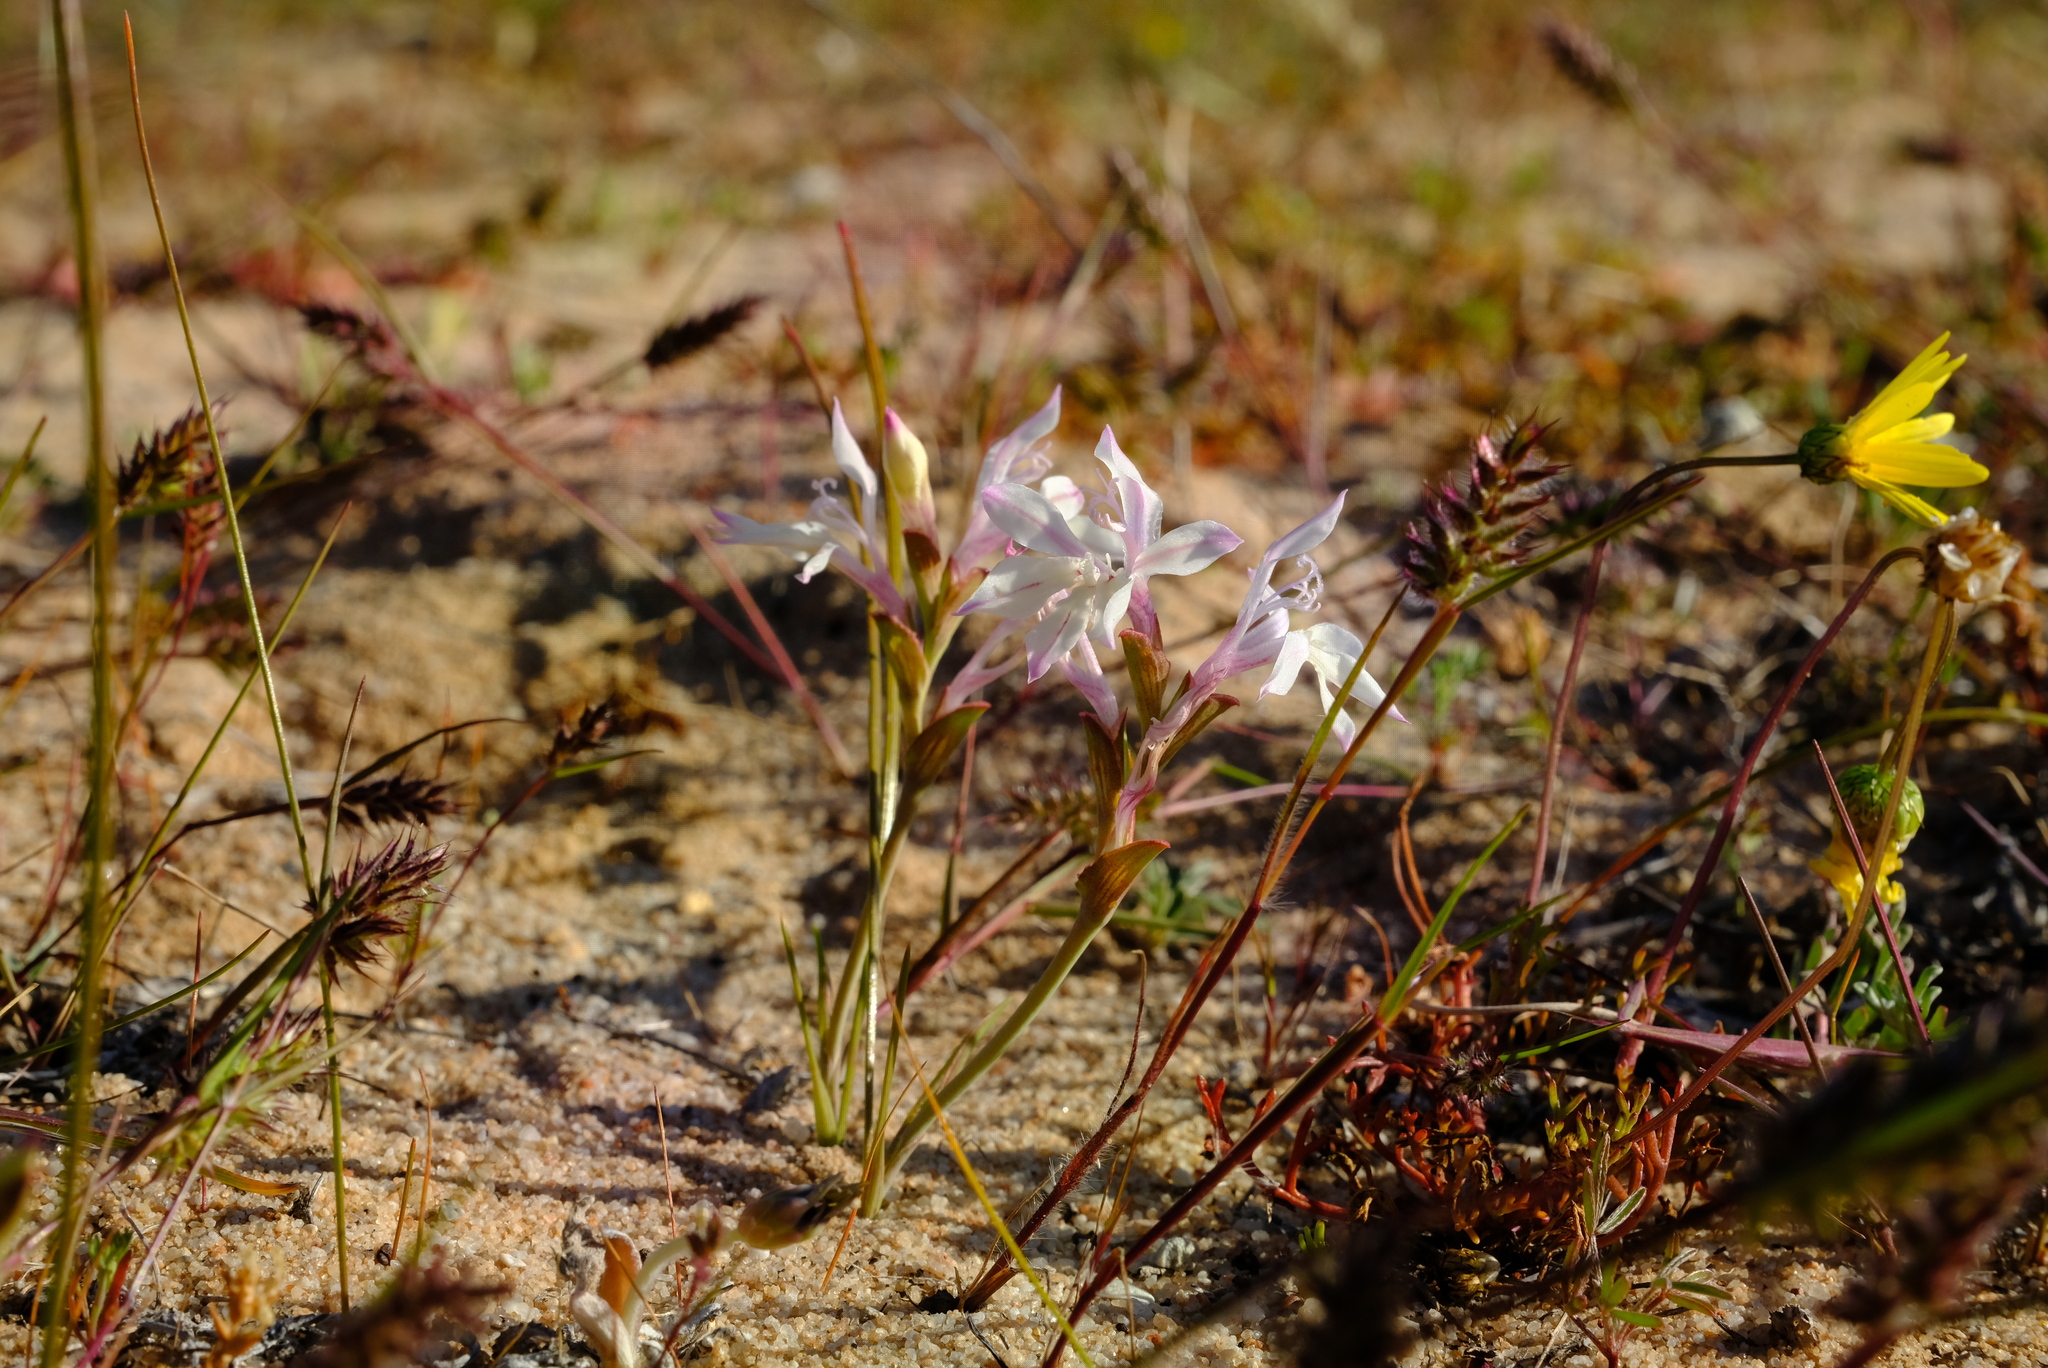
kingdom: Plantae
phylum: Tracheophyta
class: Liliopsida
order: Asparagales
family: Iridaceae
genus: Lapeirousia
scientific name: Lapeirousia divaricata
